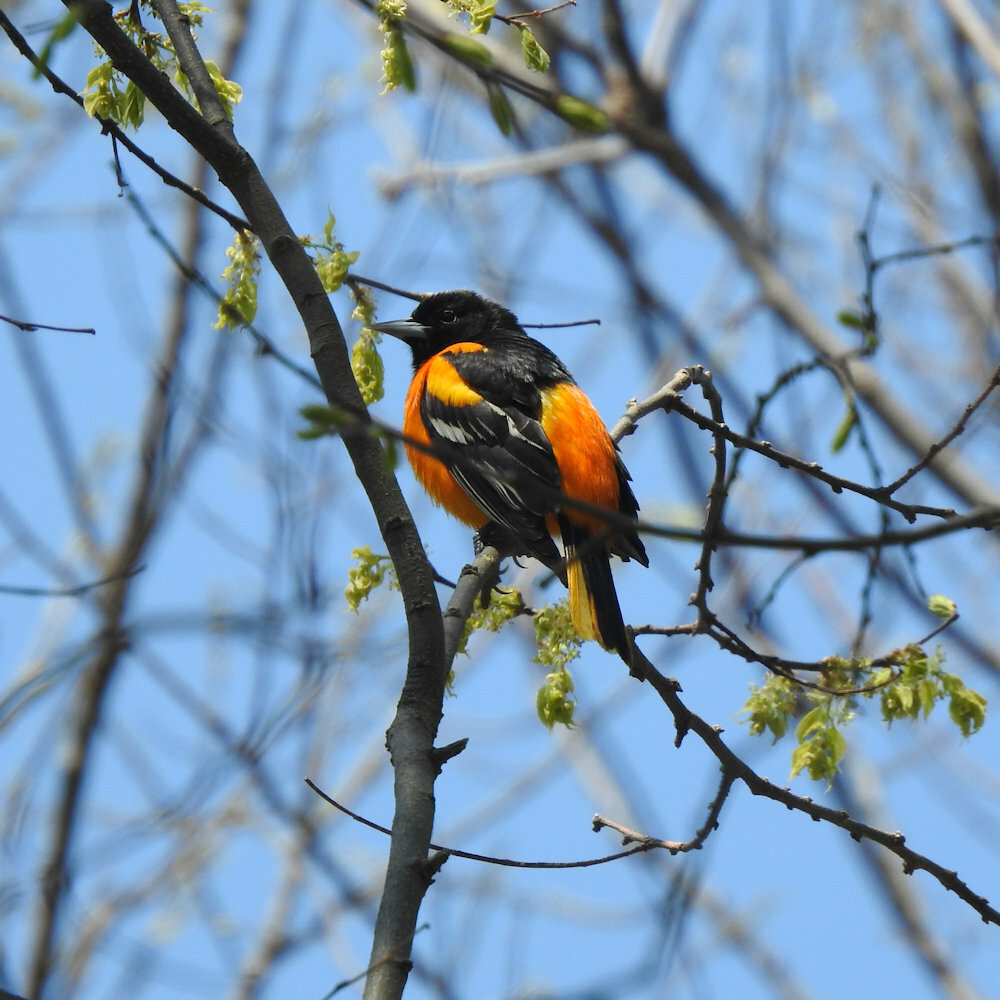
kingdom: Animalia
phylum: Chordata
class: Aves
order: Passeriformes
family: Icteridae
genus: Icterus
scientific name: Icterus galbula
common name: Baltimore oriole
